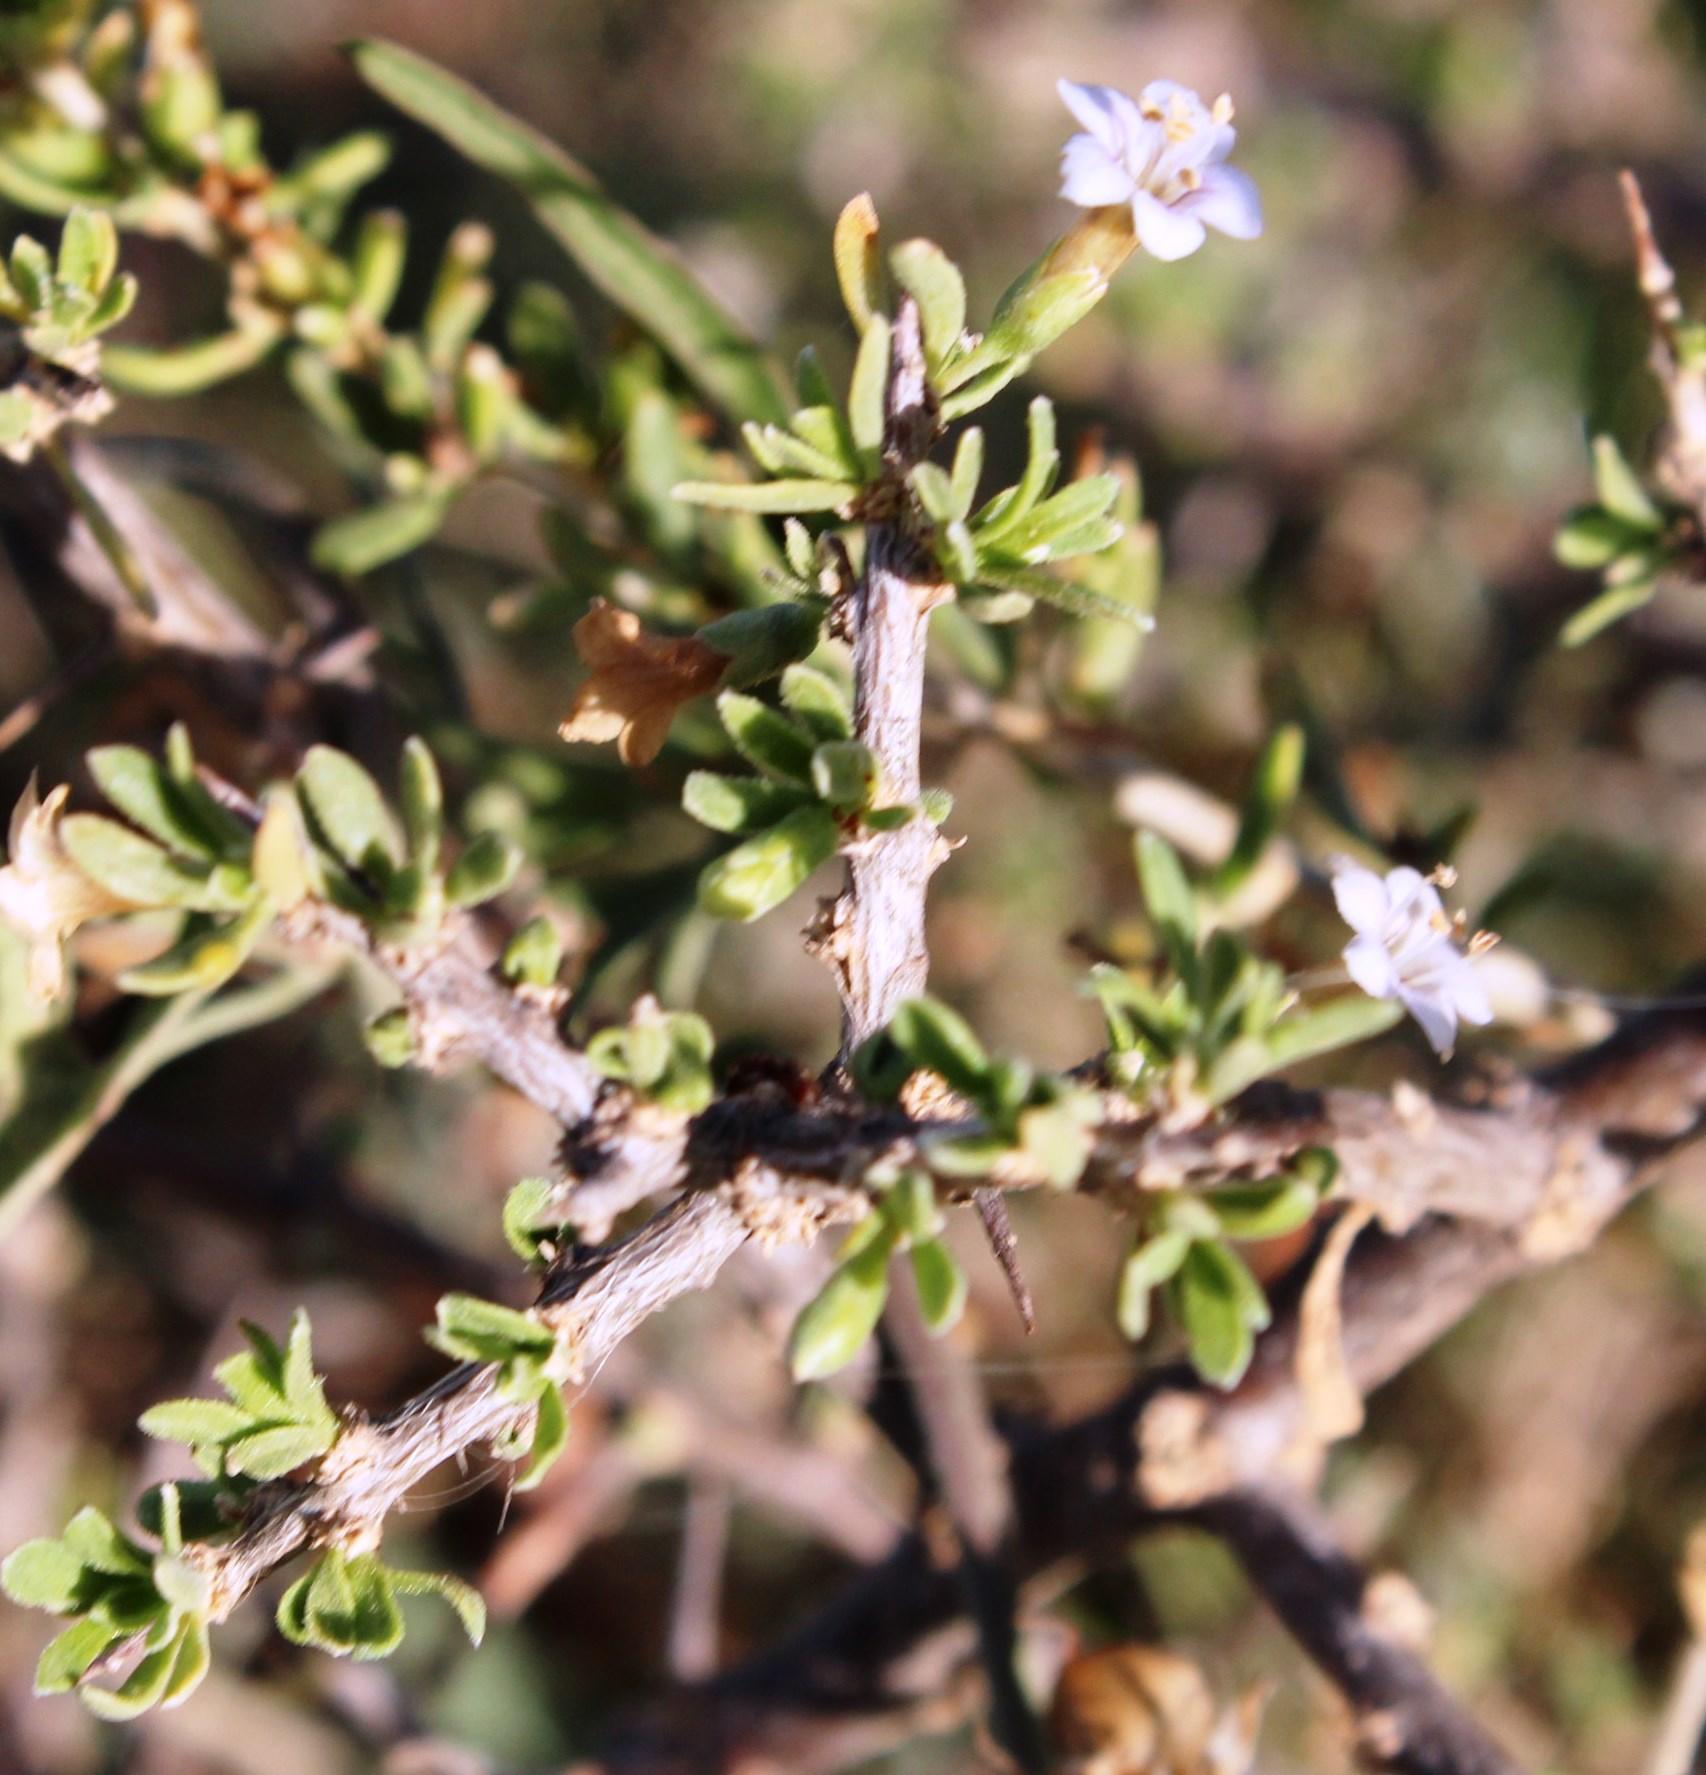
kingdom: Plantae
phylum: Tracheophyta
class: Magnoliopsida
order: Solanales
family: Solanaceae
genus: Lycium
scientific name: Lycium cinereum
